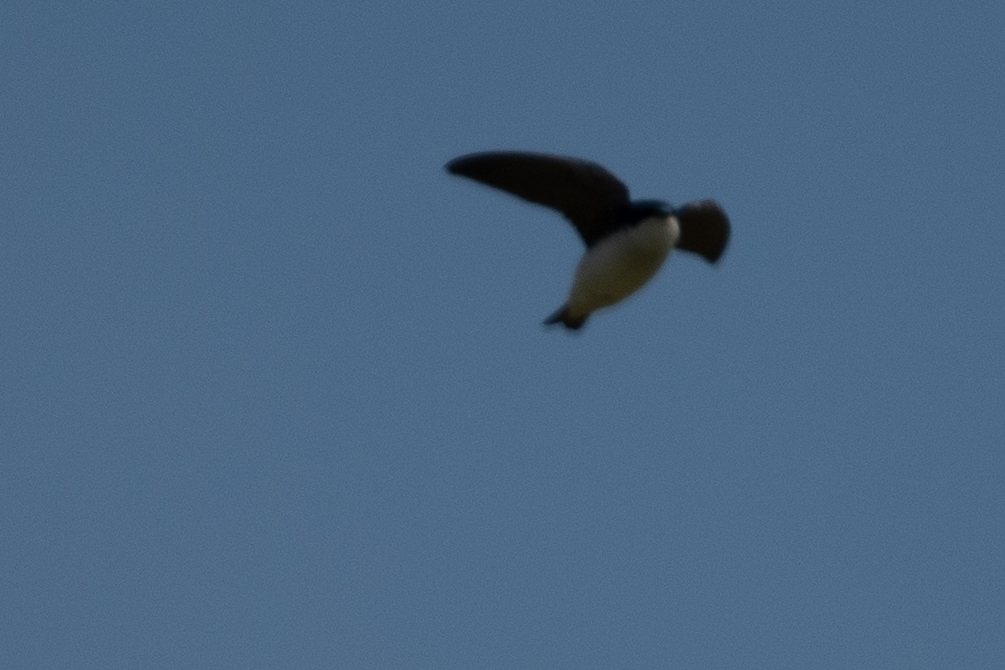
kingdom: Animalia
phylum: Chordata
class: Aves
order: Passeriformes
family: Hirundinidae
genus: Tachycineta
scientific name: Tachycineta bicolor
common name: Tree swallow
